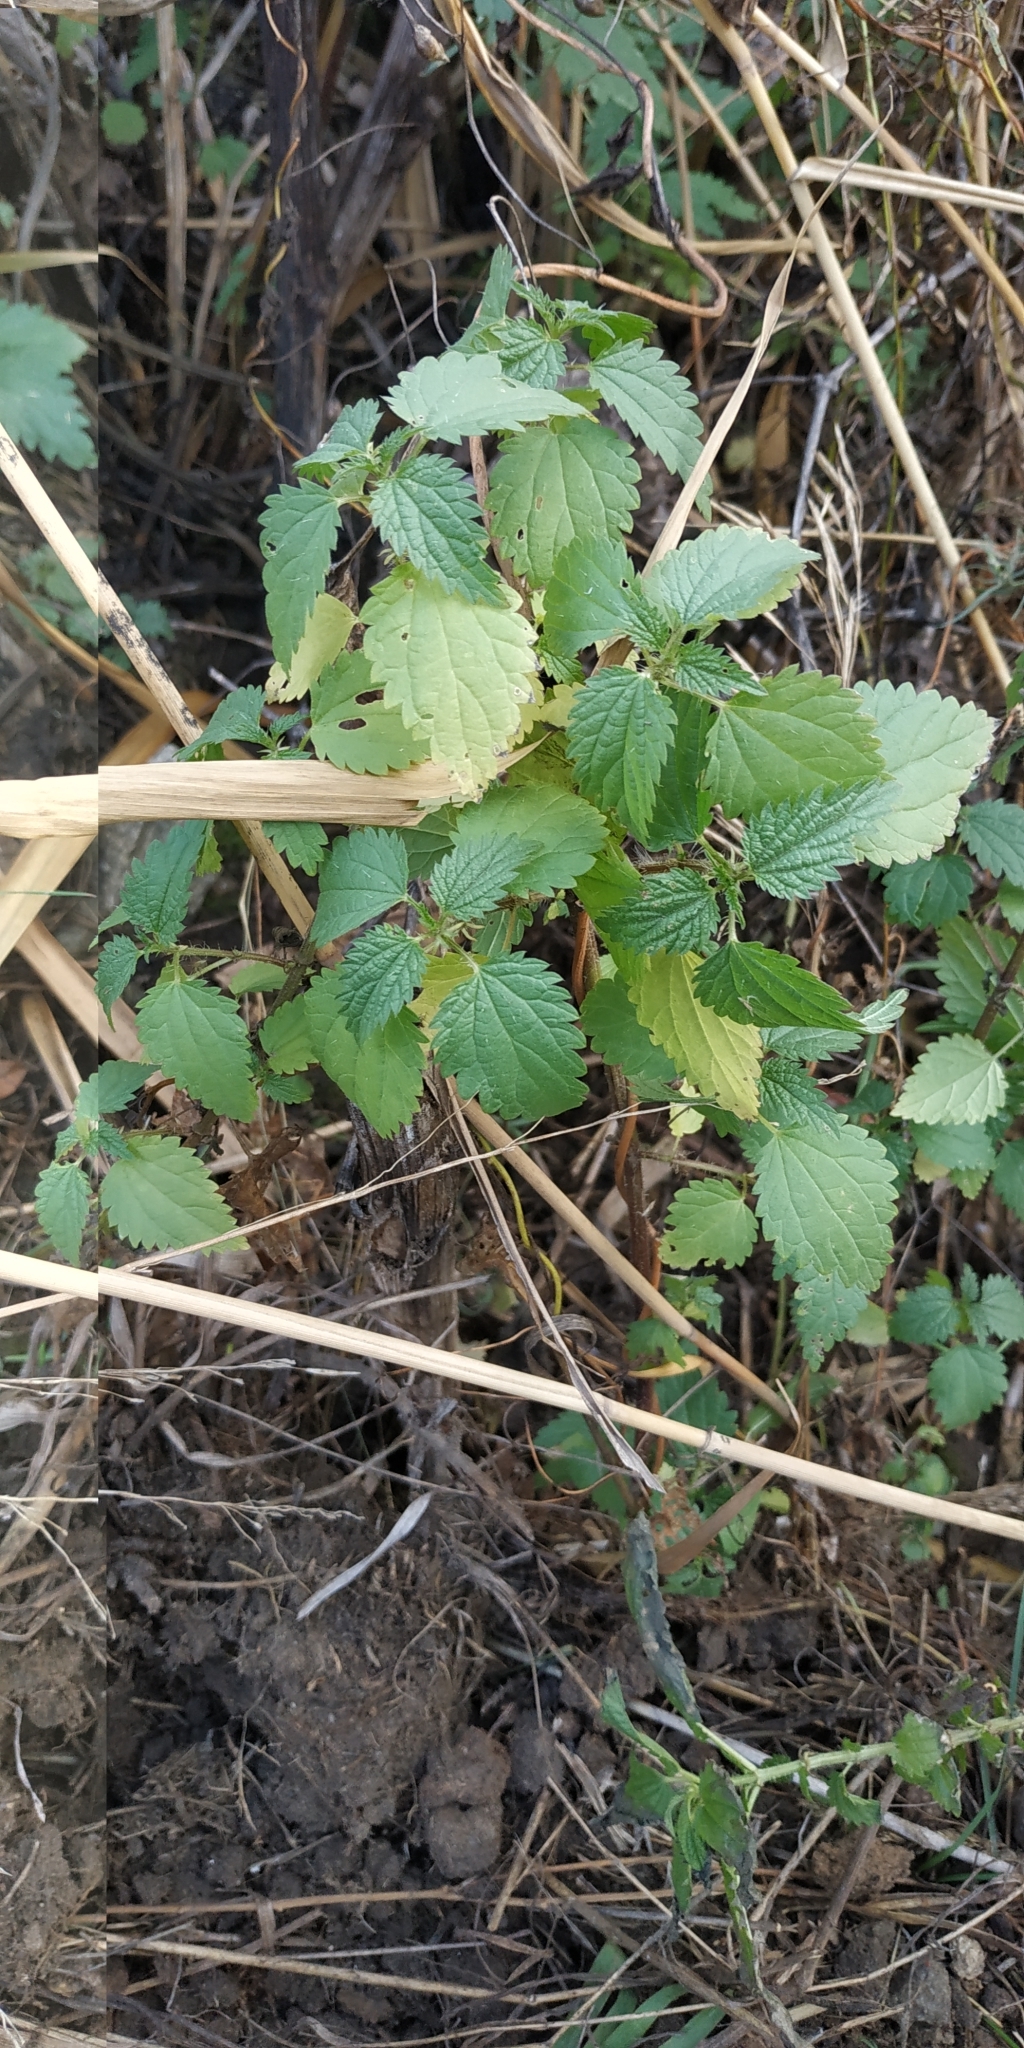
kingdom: Plantae
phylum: Tracheophyta
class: Magnoliopsida
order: Rosales
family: Urticaceae
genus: Urtica
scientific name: Urtica dioica
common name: Common nettle
